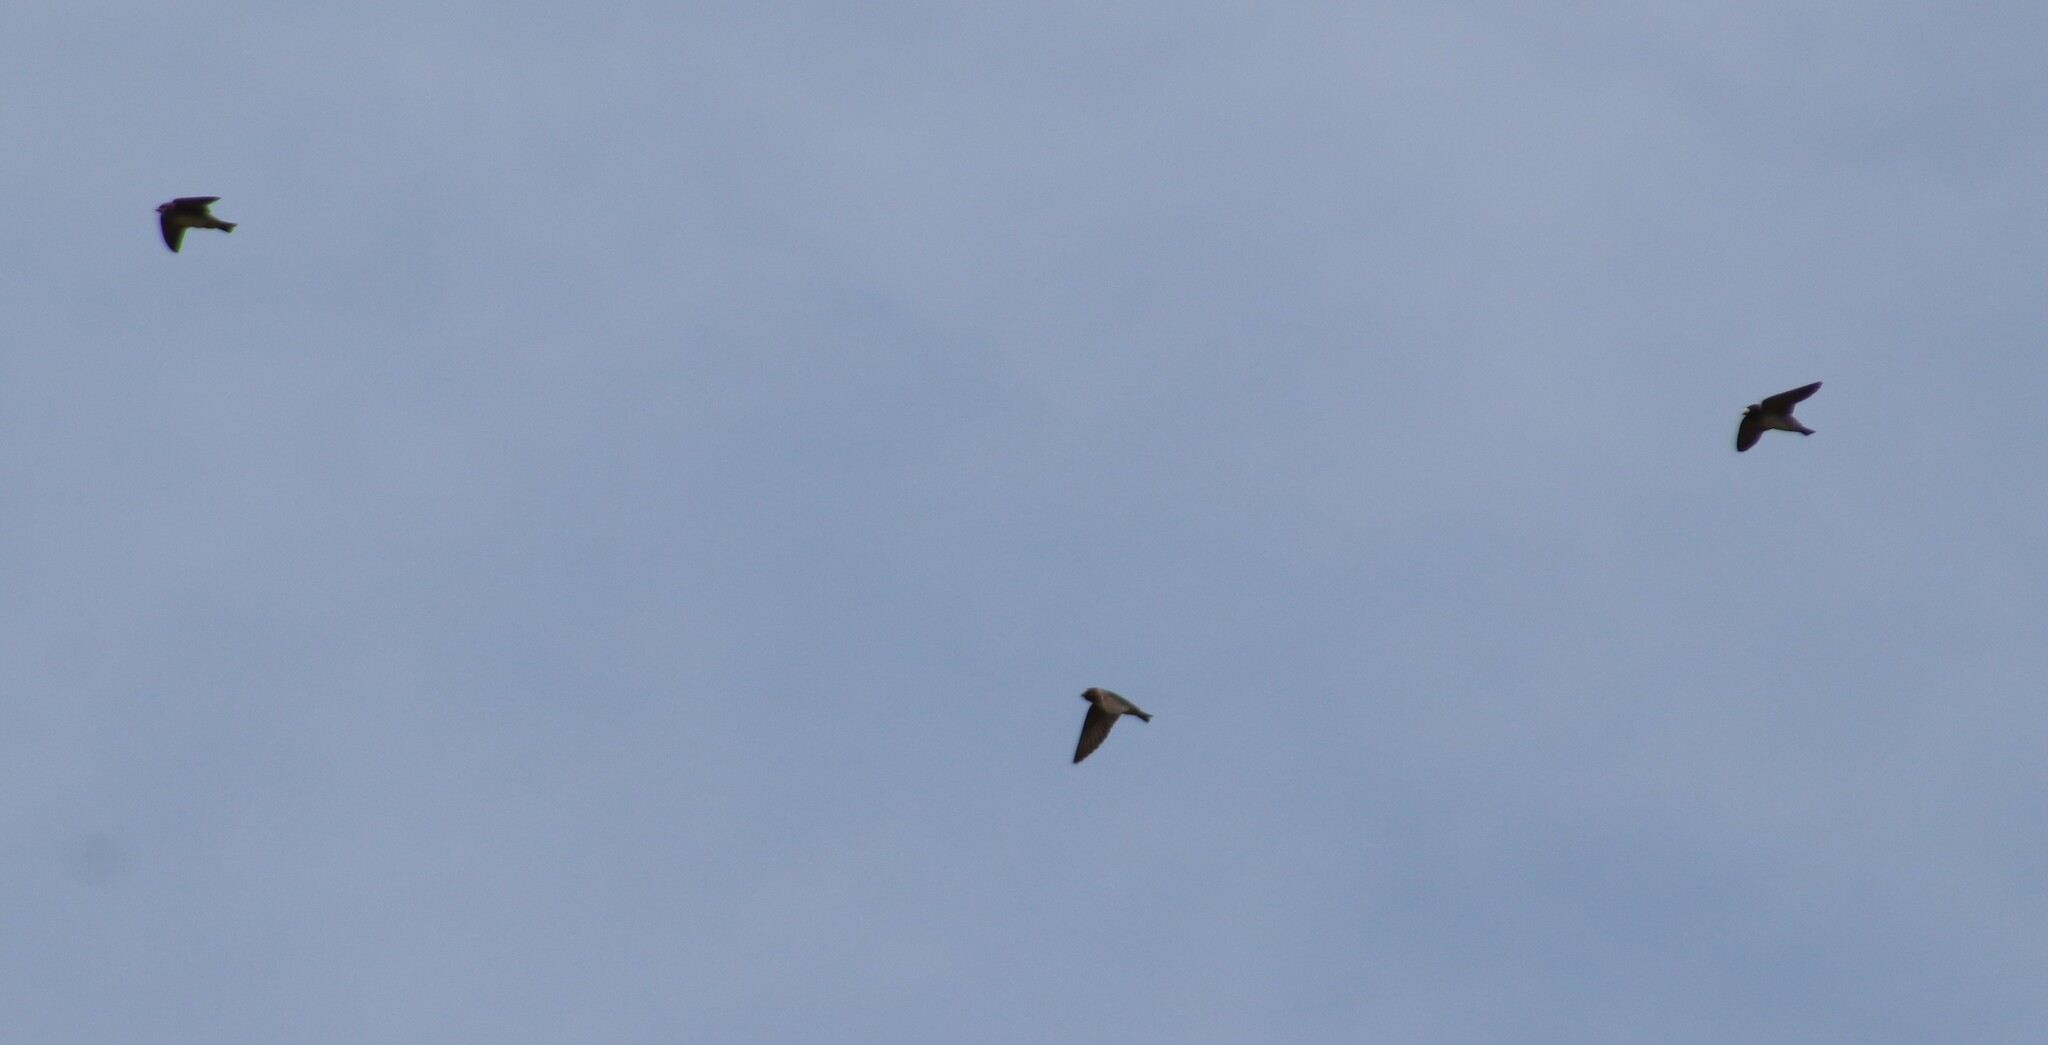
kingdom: Animalia
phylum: Chordata
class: Aves
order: Passeriformes
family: Hirundinidae
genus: Petrochelidon
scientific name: Petrochelidon pyrrhonota
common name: American cliff swallow
